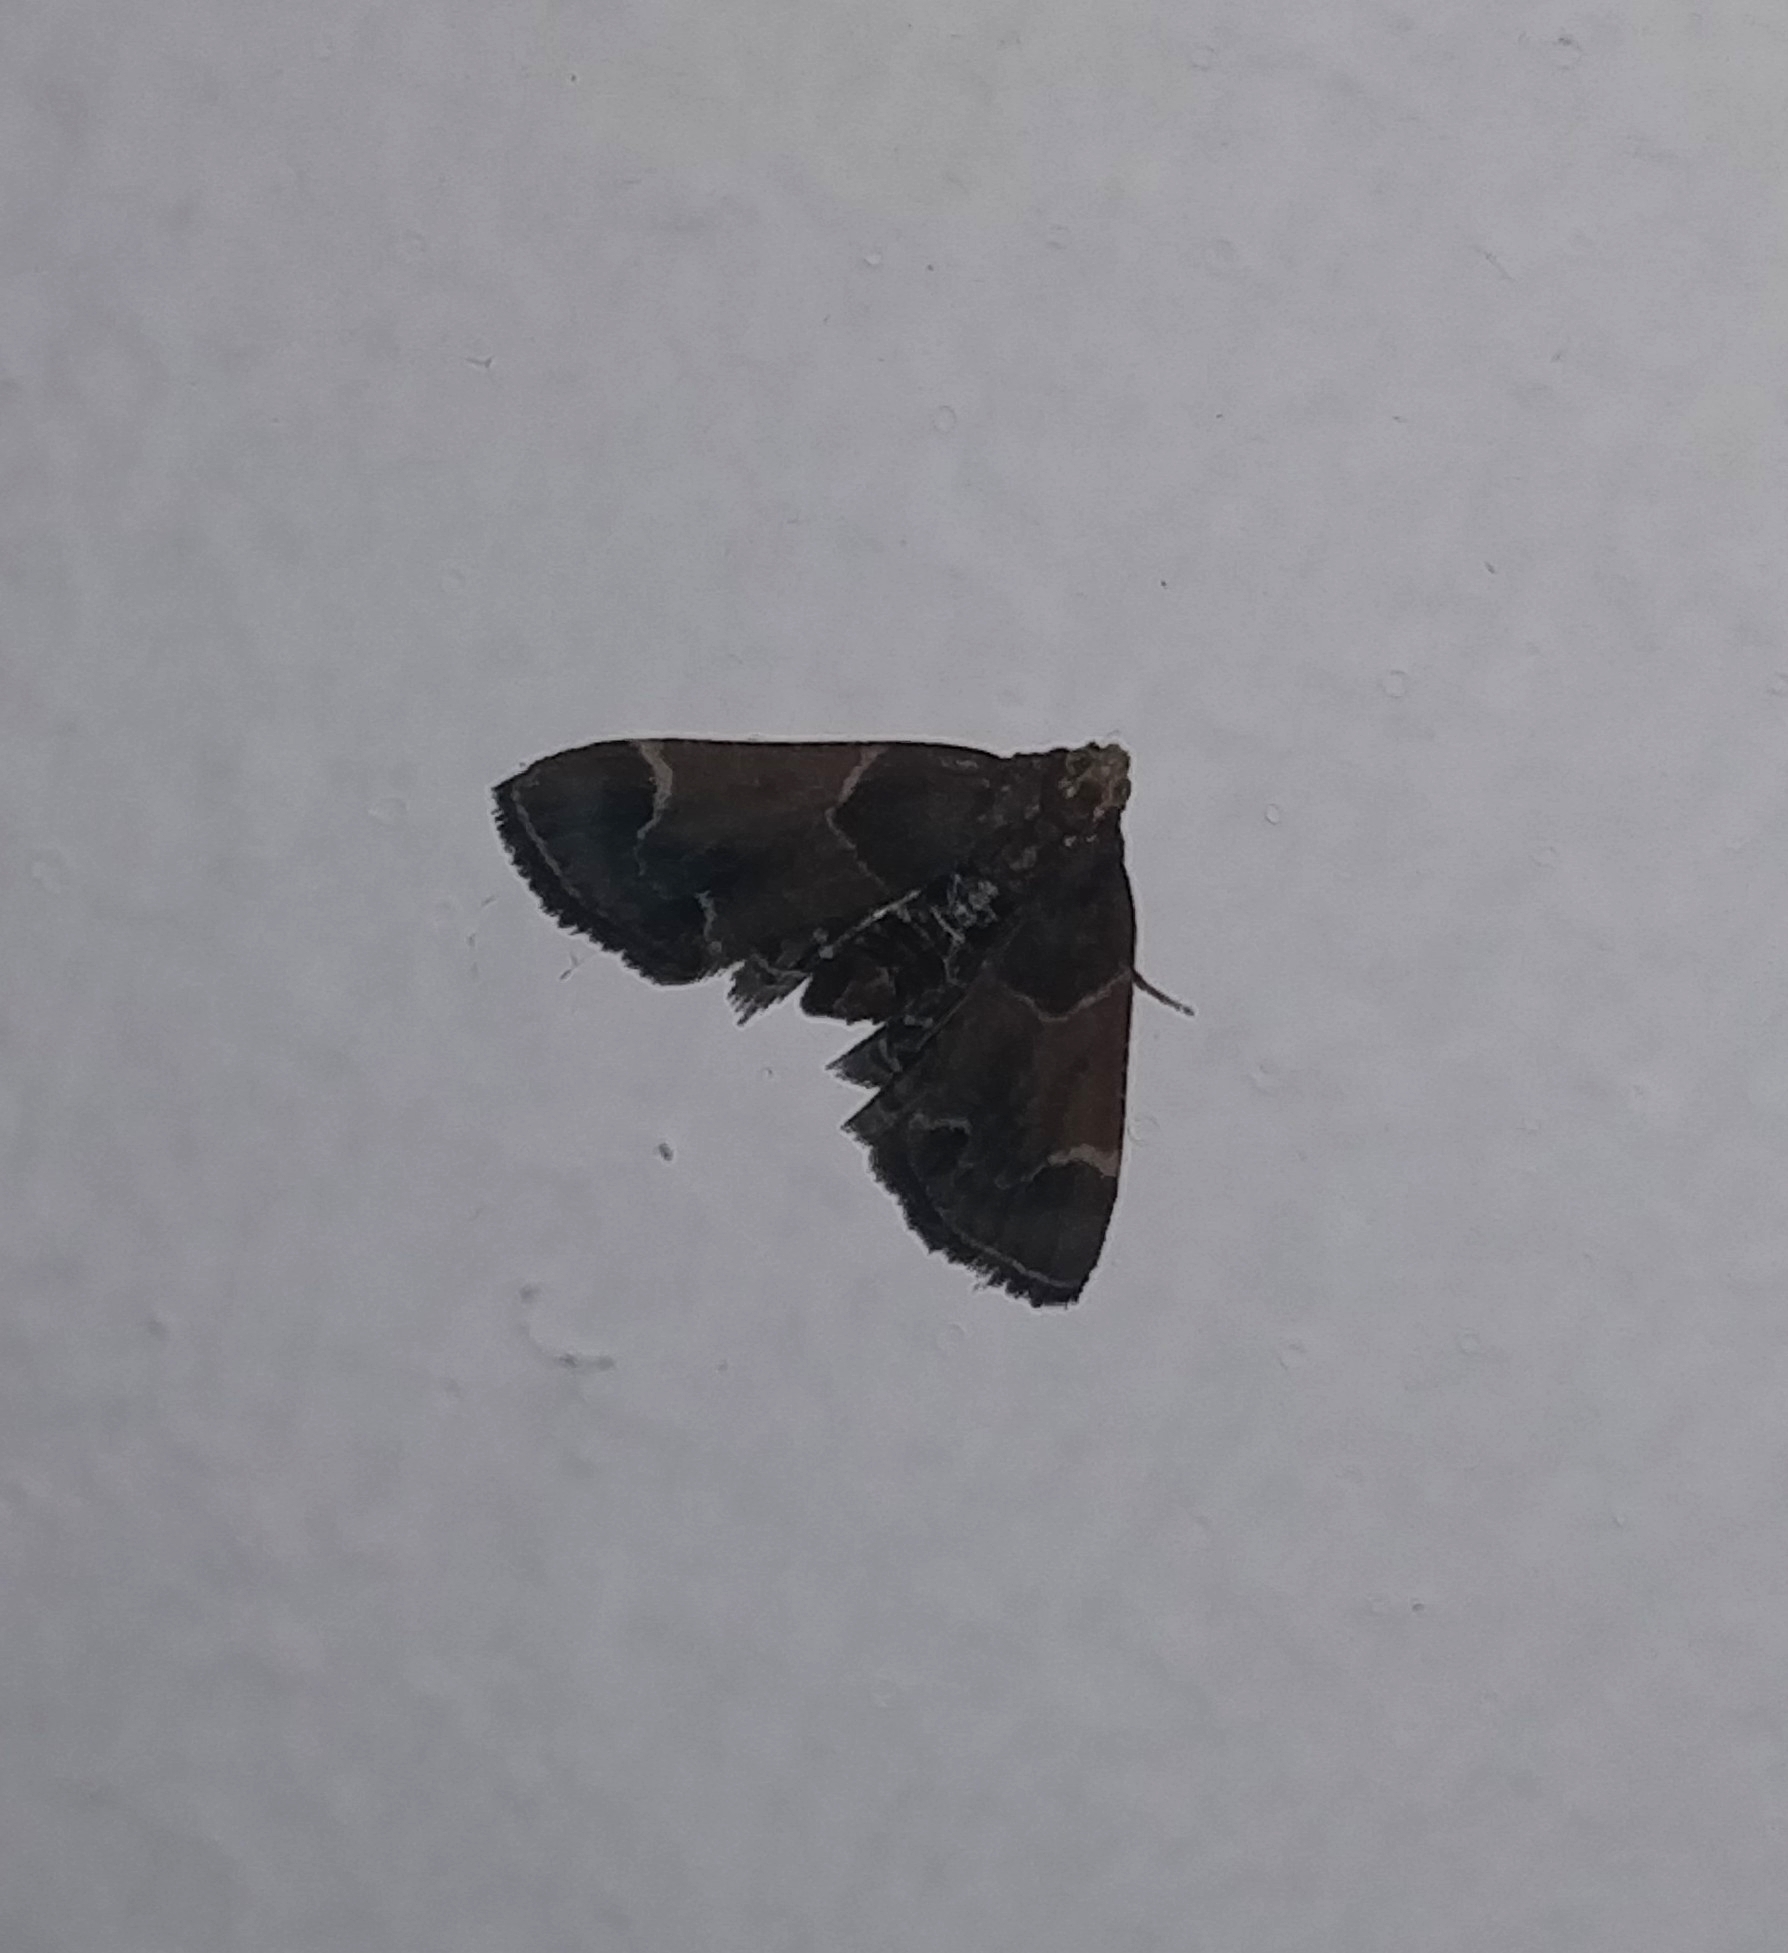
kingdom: Animalia
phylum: Arthropoda
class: Insecta
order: Lepidoptera
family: Pyralidae
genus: Pyralis
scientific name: Pyralis farinalis
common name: Meal moth
